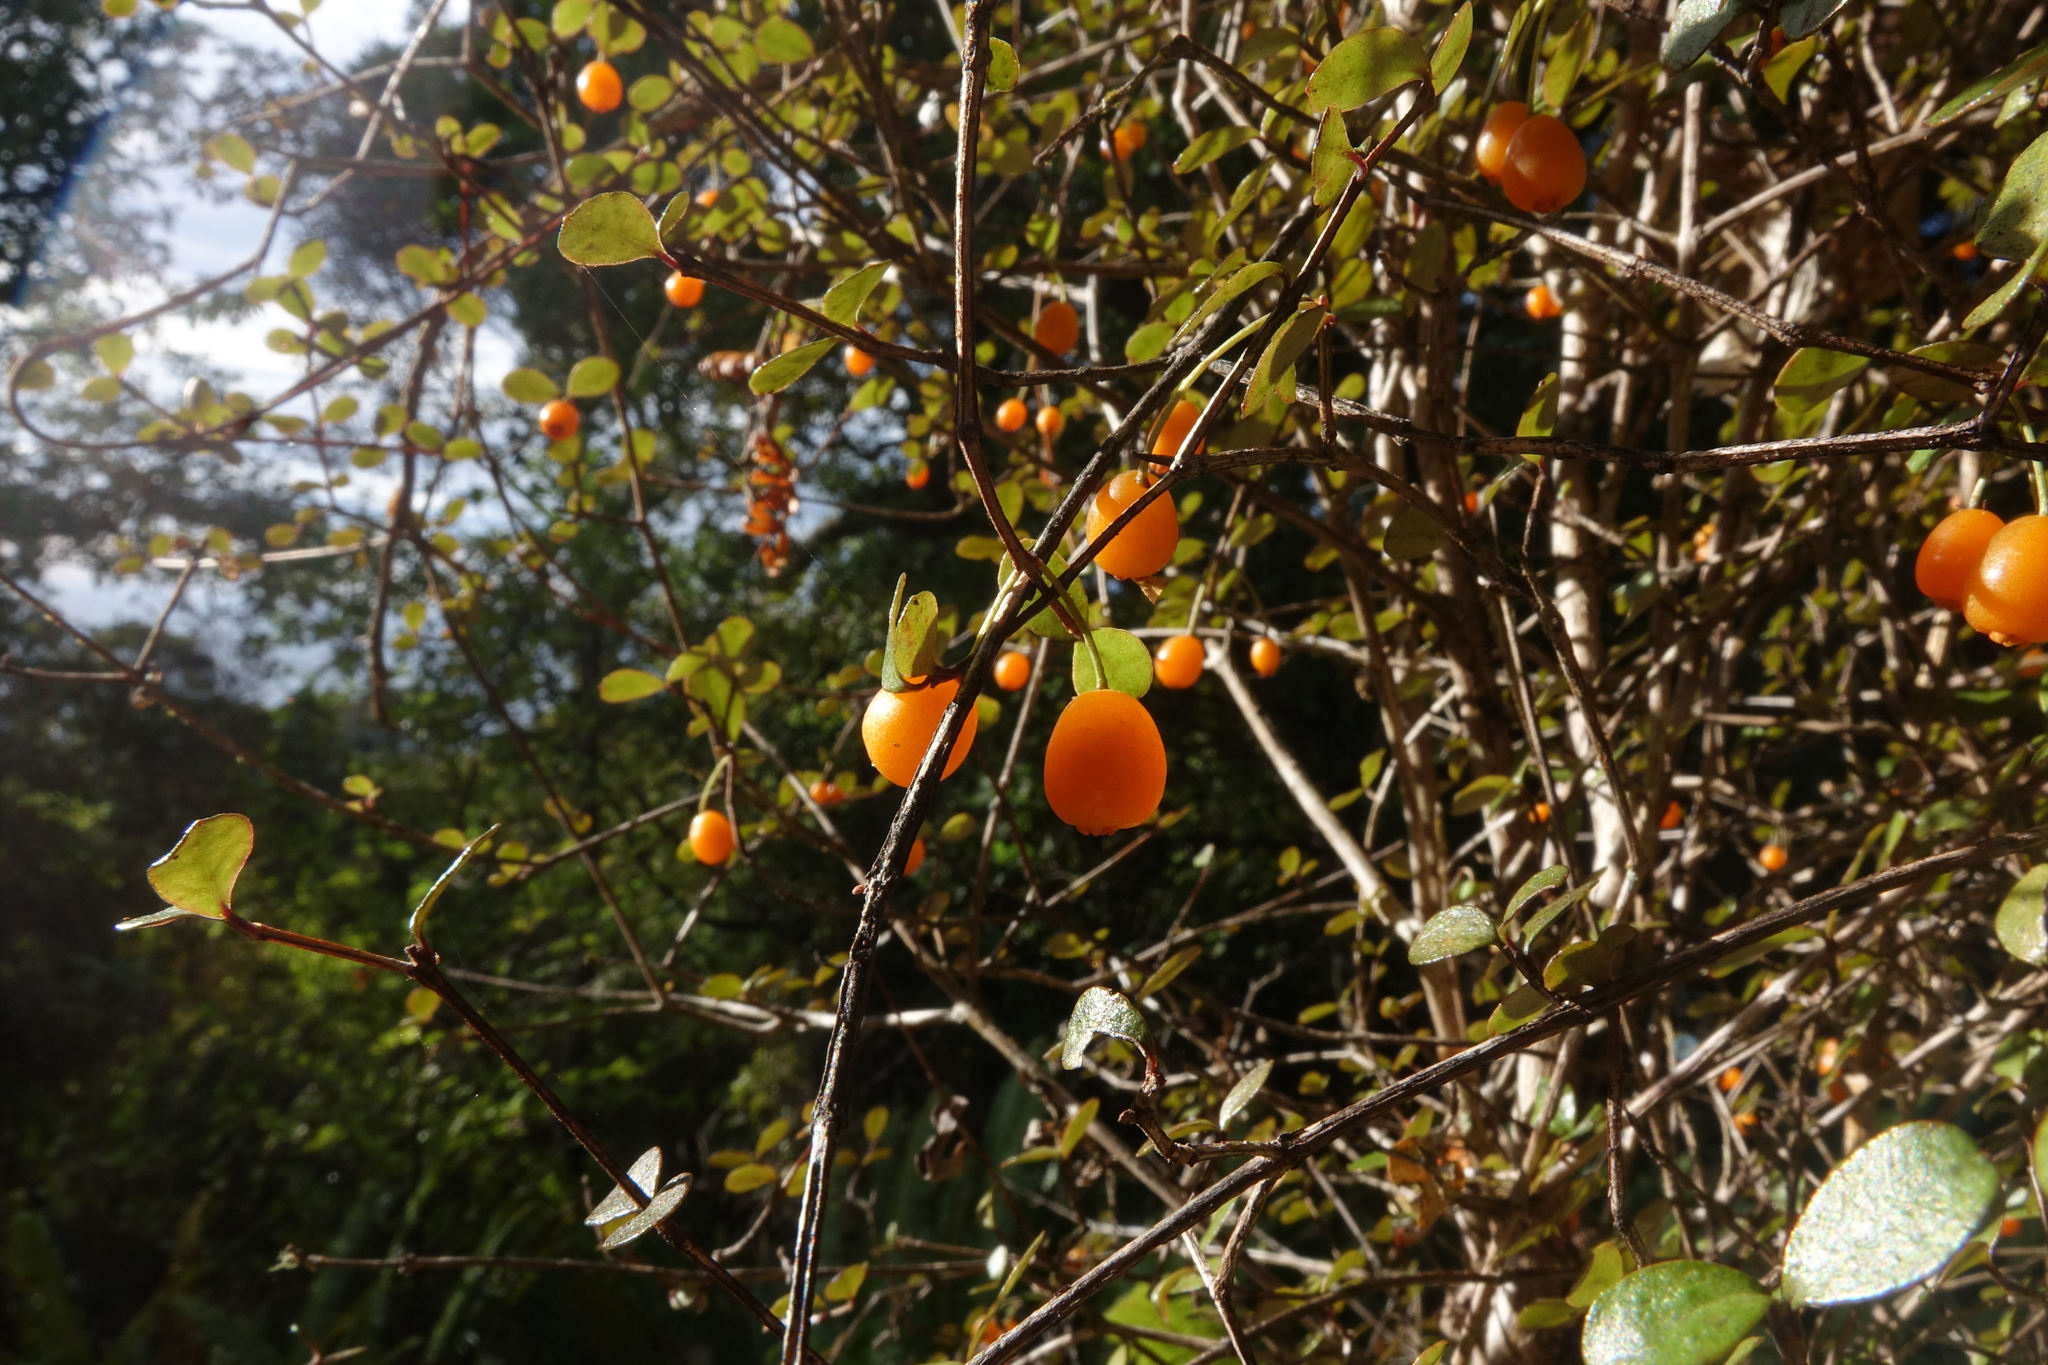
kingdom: Plantae
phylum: Tracheophyta
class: Magnoliopsida
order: Myrtales
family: Myrtaceae
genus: Neomyrtus
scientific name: Neomyrtus pedunculata
